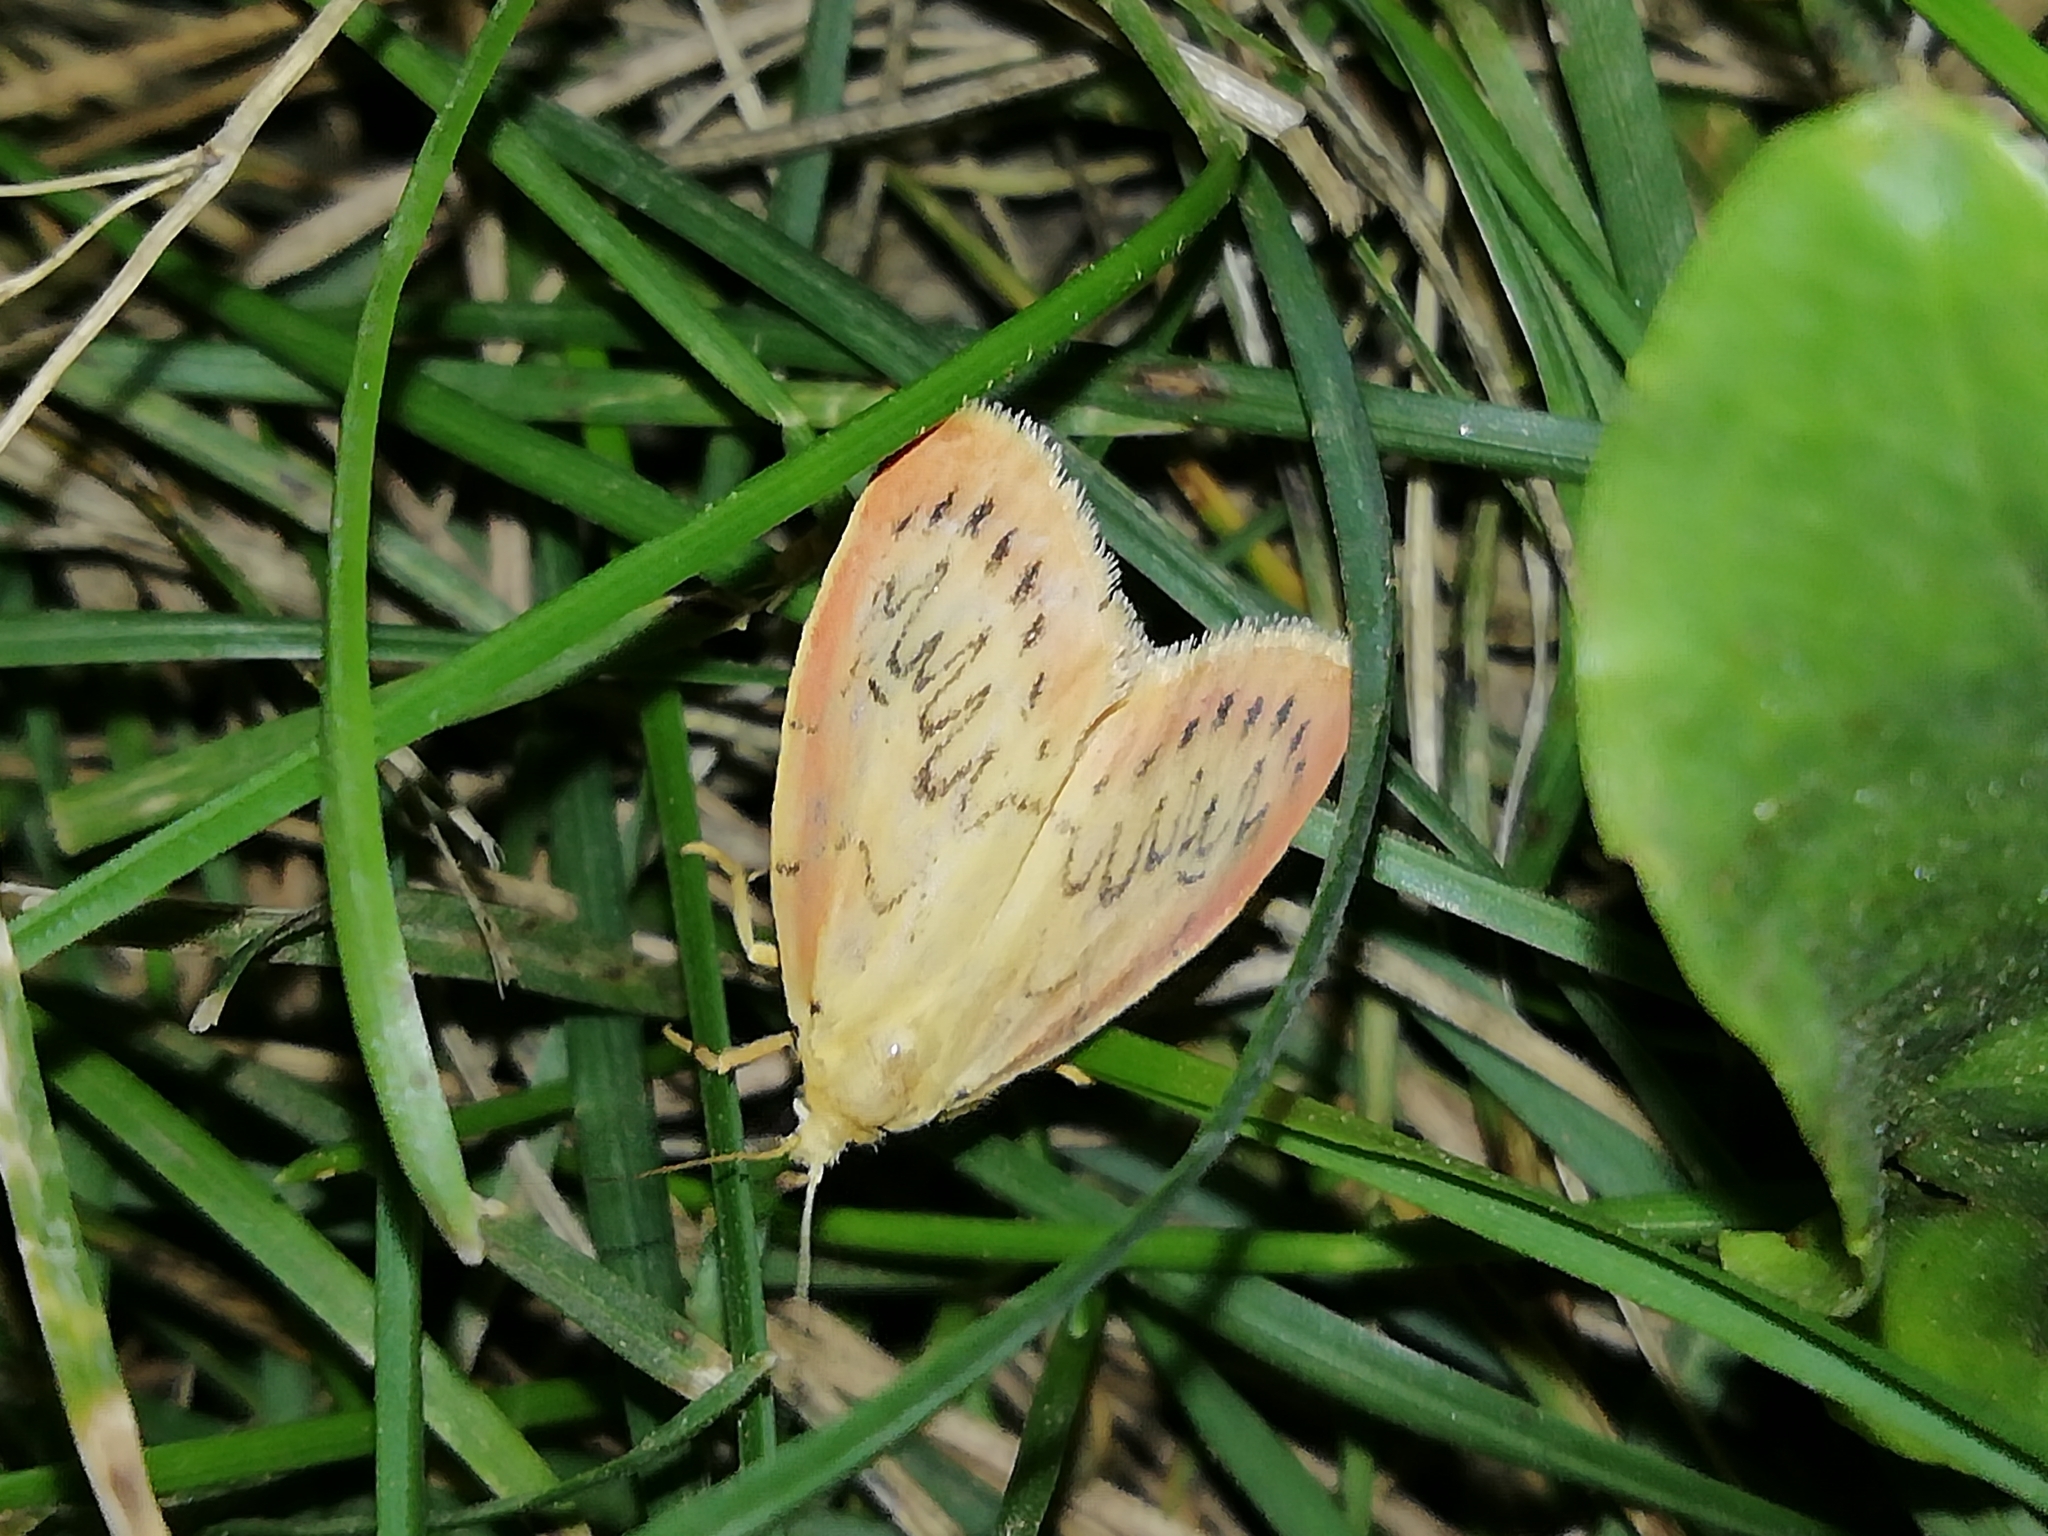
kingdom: Animalia
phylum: Arthropoda
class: Insecta
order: Lepidoptera
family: Erebidae
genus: Miltochrista
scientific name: Miltochrista miniata
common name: Rosy footman
